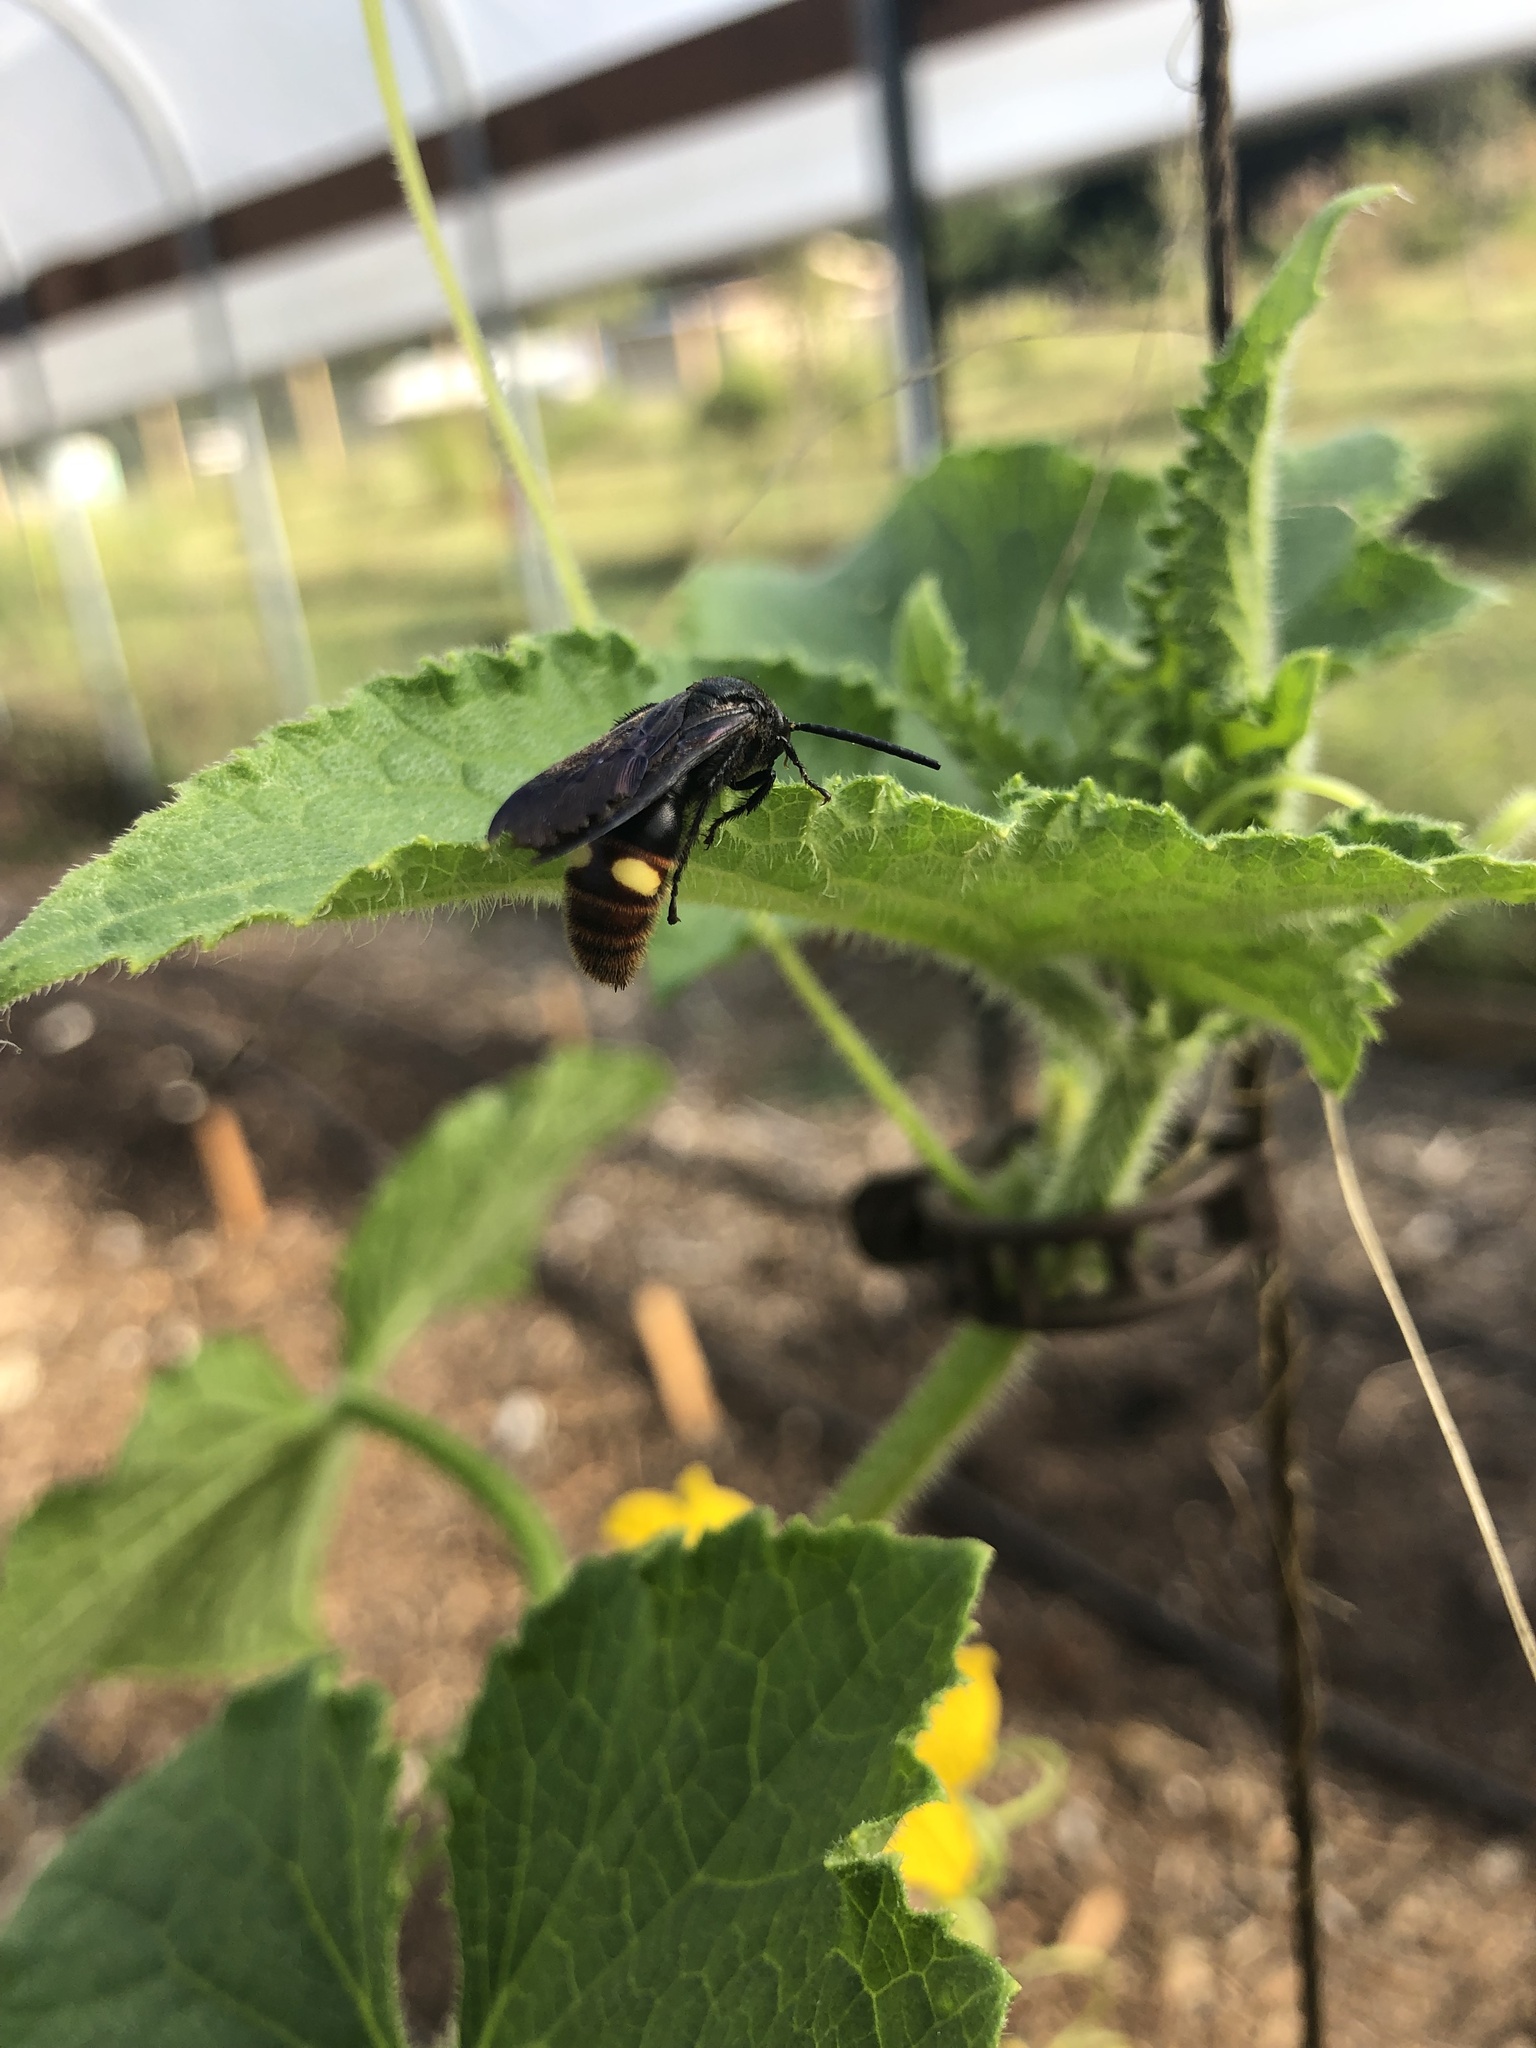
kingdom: Animalia
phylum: Arthropoda
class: Insecta
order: Hymenoptera
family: Scoliidae
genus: Scolia
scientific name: Scolia dubia
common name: Blue-winged scoliid wasp
